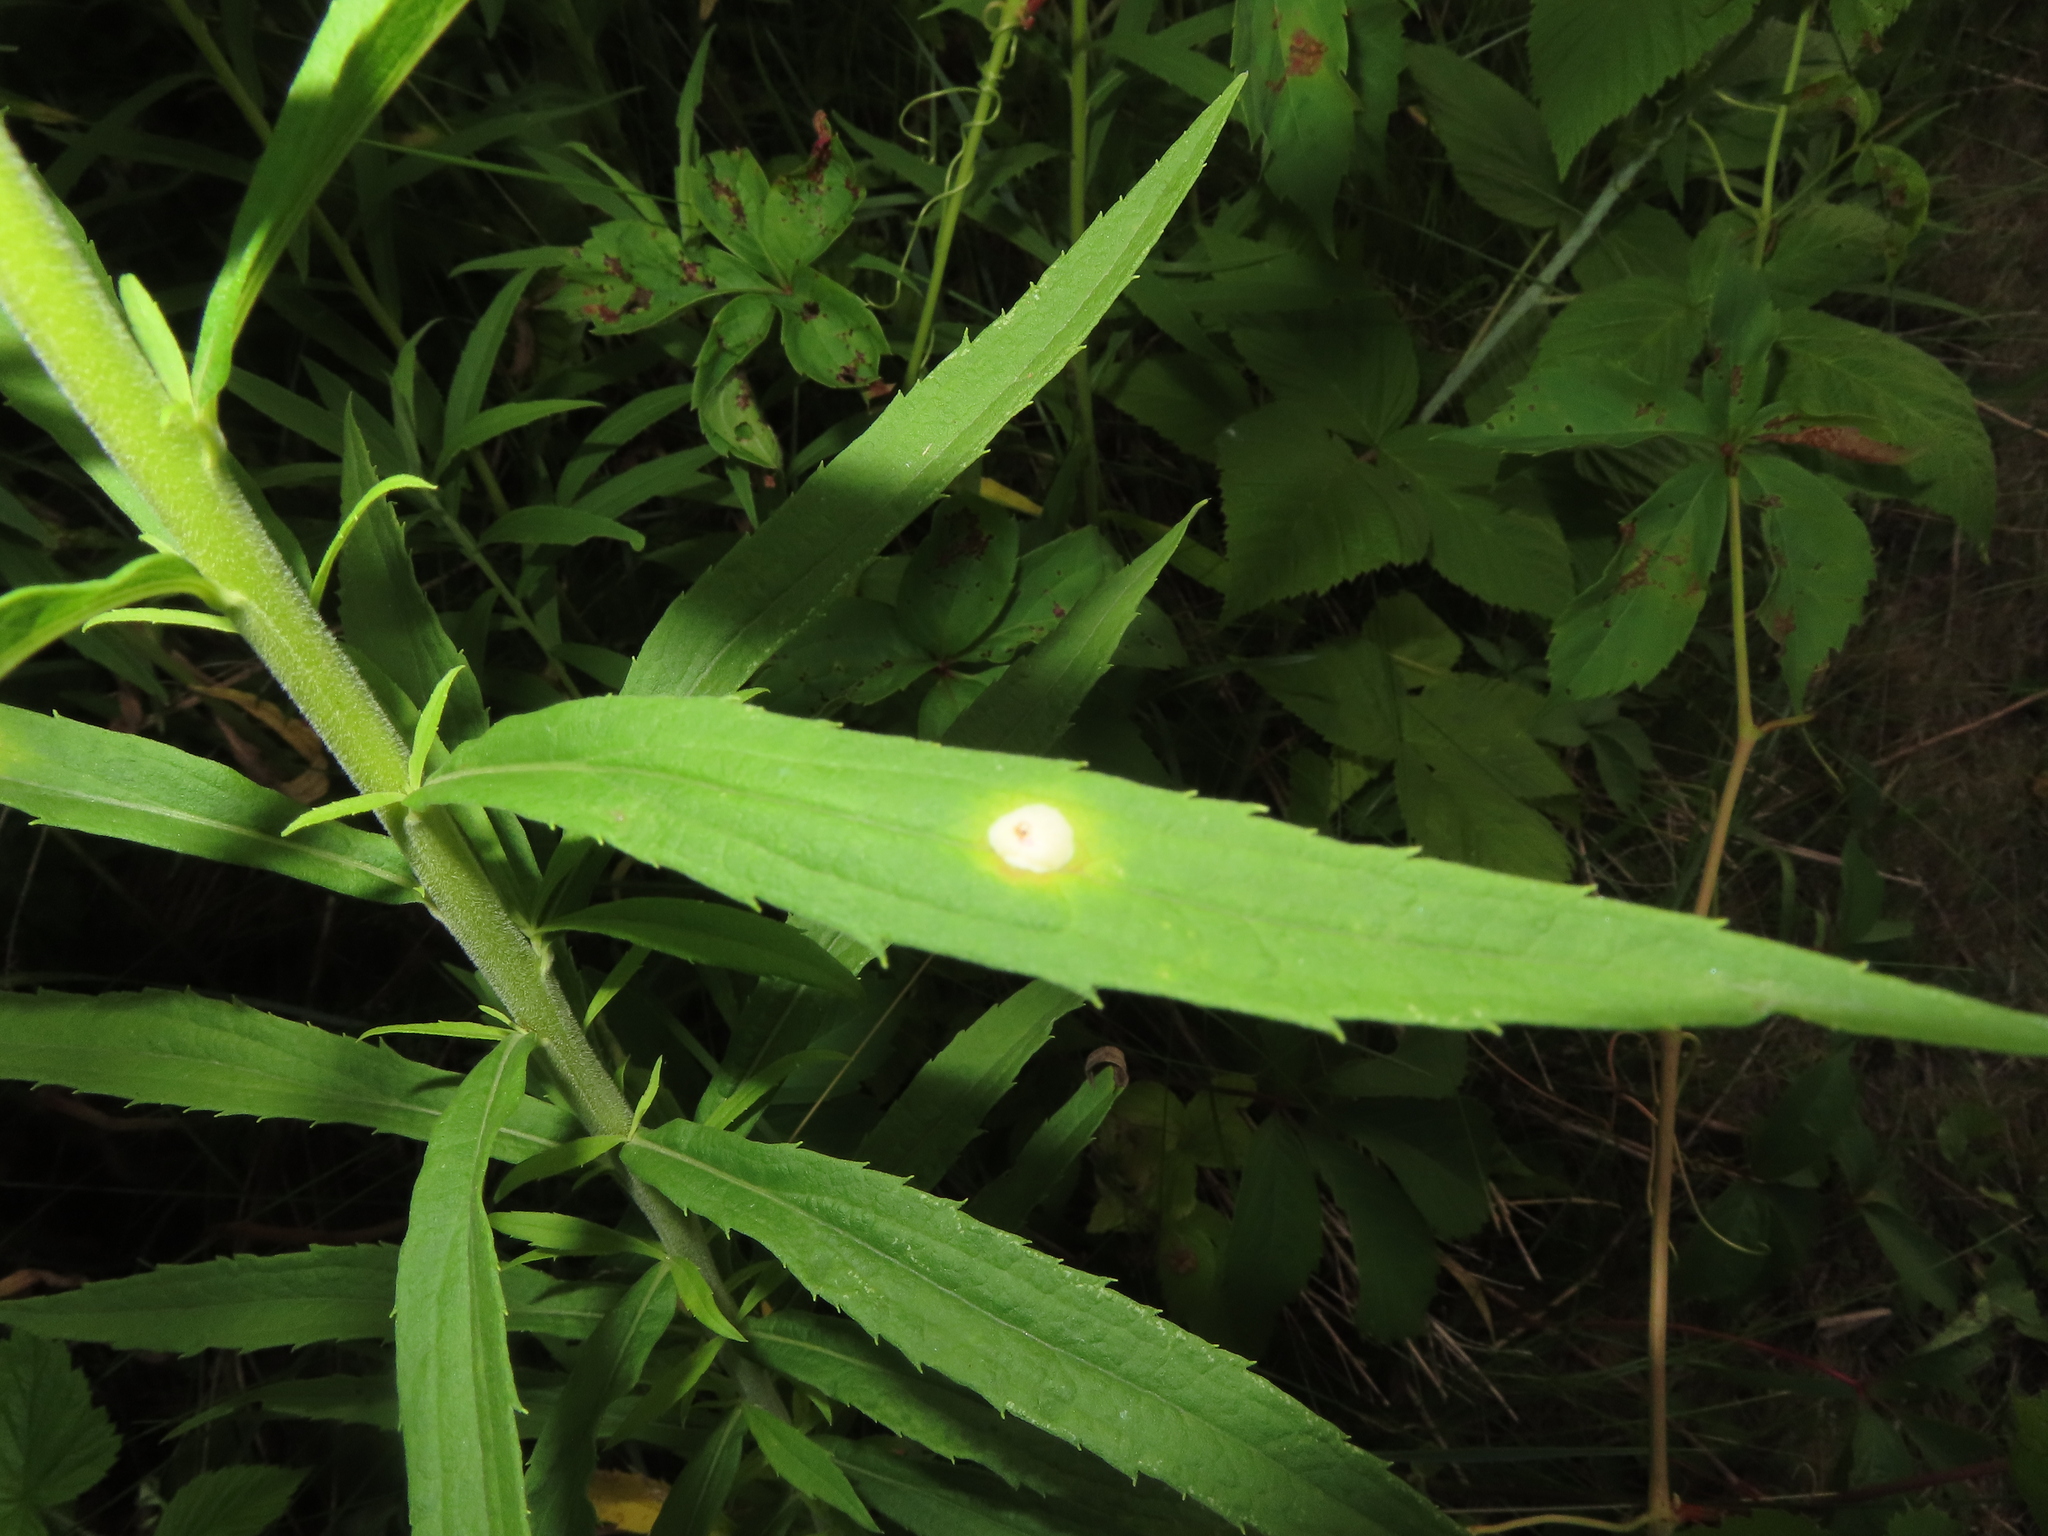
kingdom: Animalia
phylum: Arthropoda
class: Insecta
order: Diptera
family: Cecidomyiidae
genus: Asteromyia
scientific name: Asteromyia carbonifera
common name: Carbonifera goldenrod gall midge
